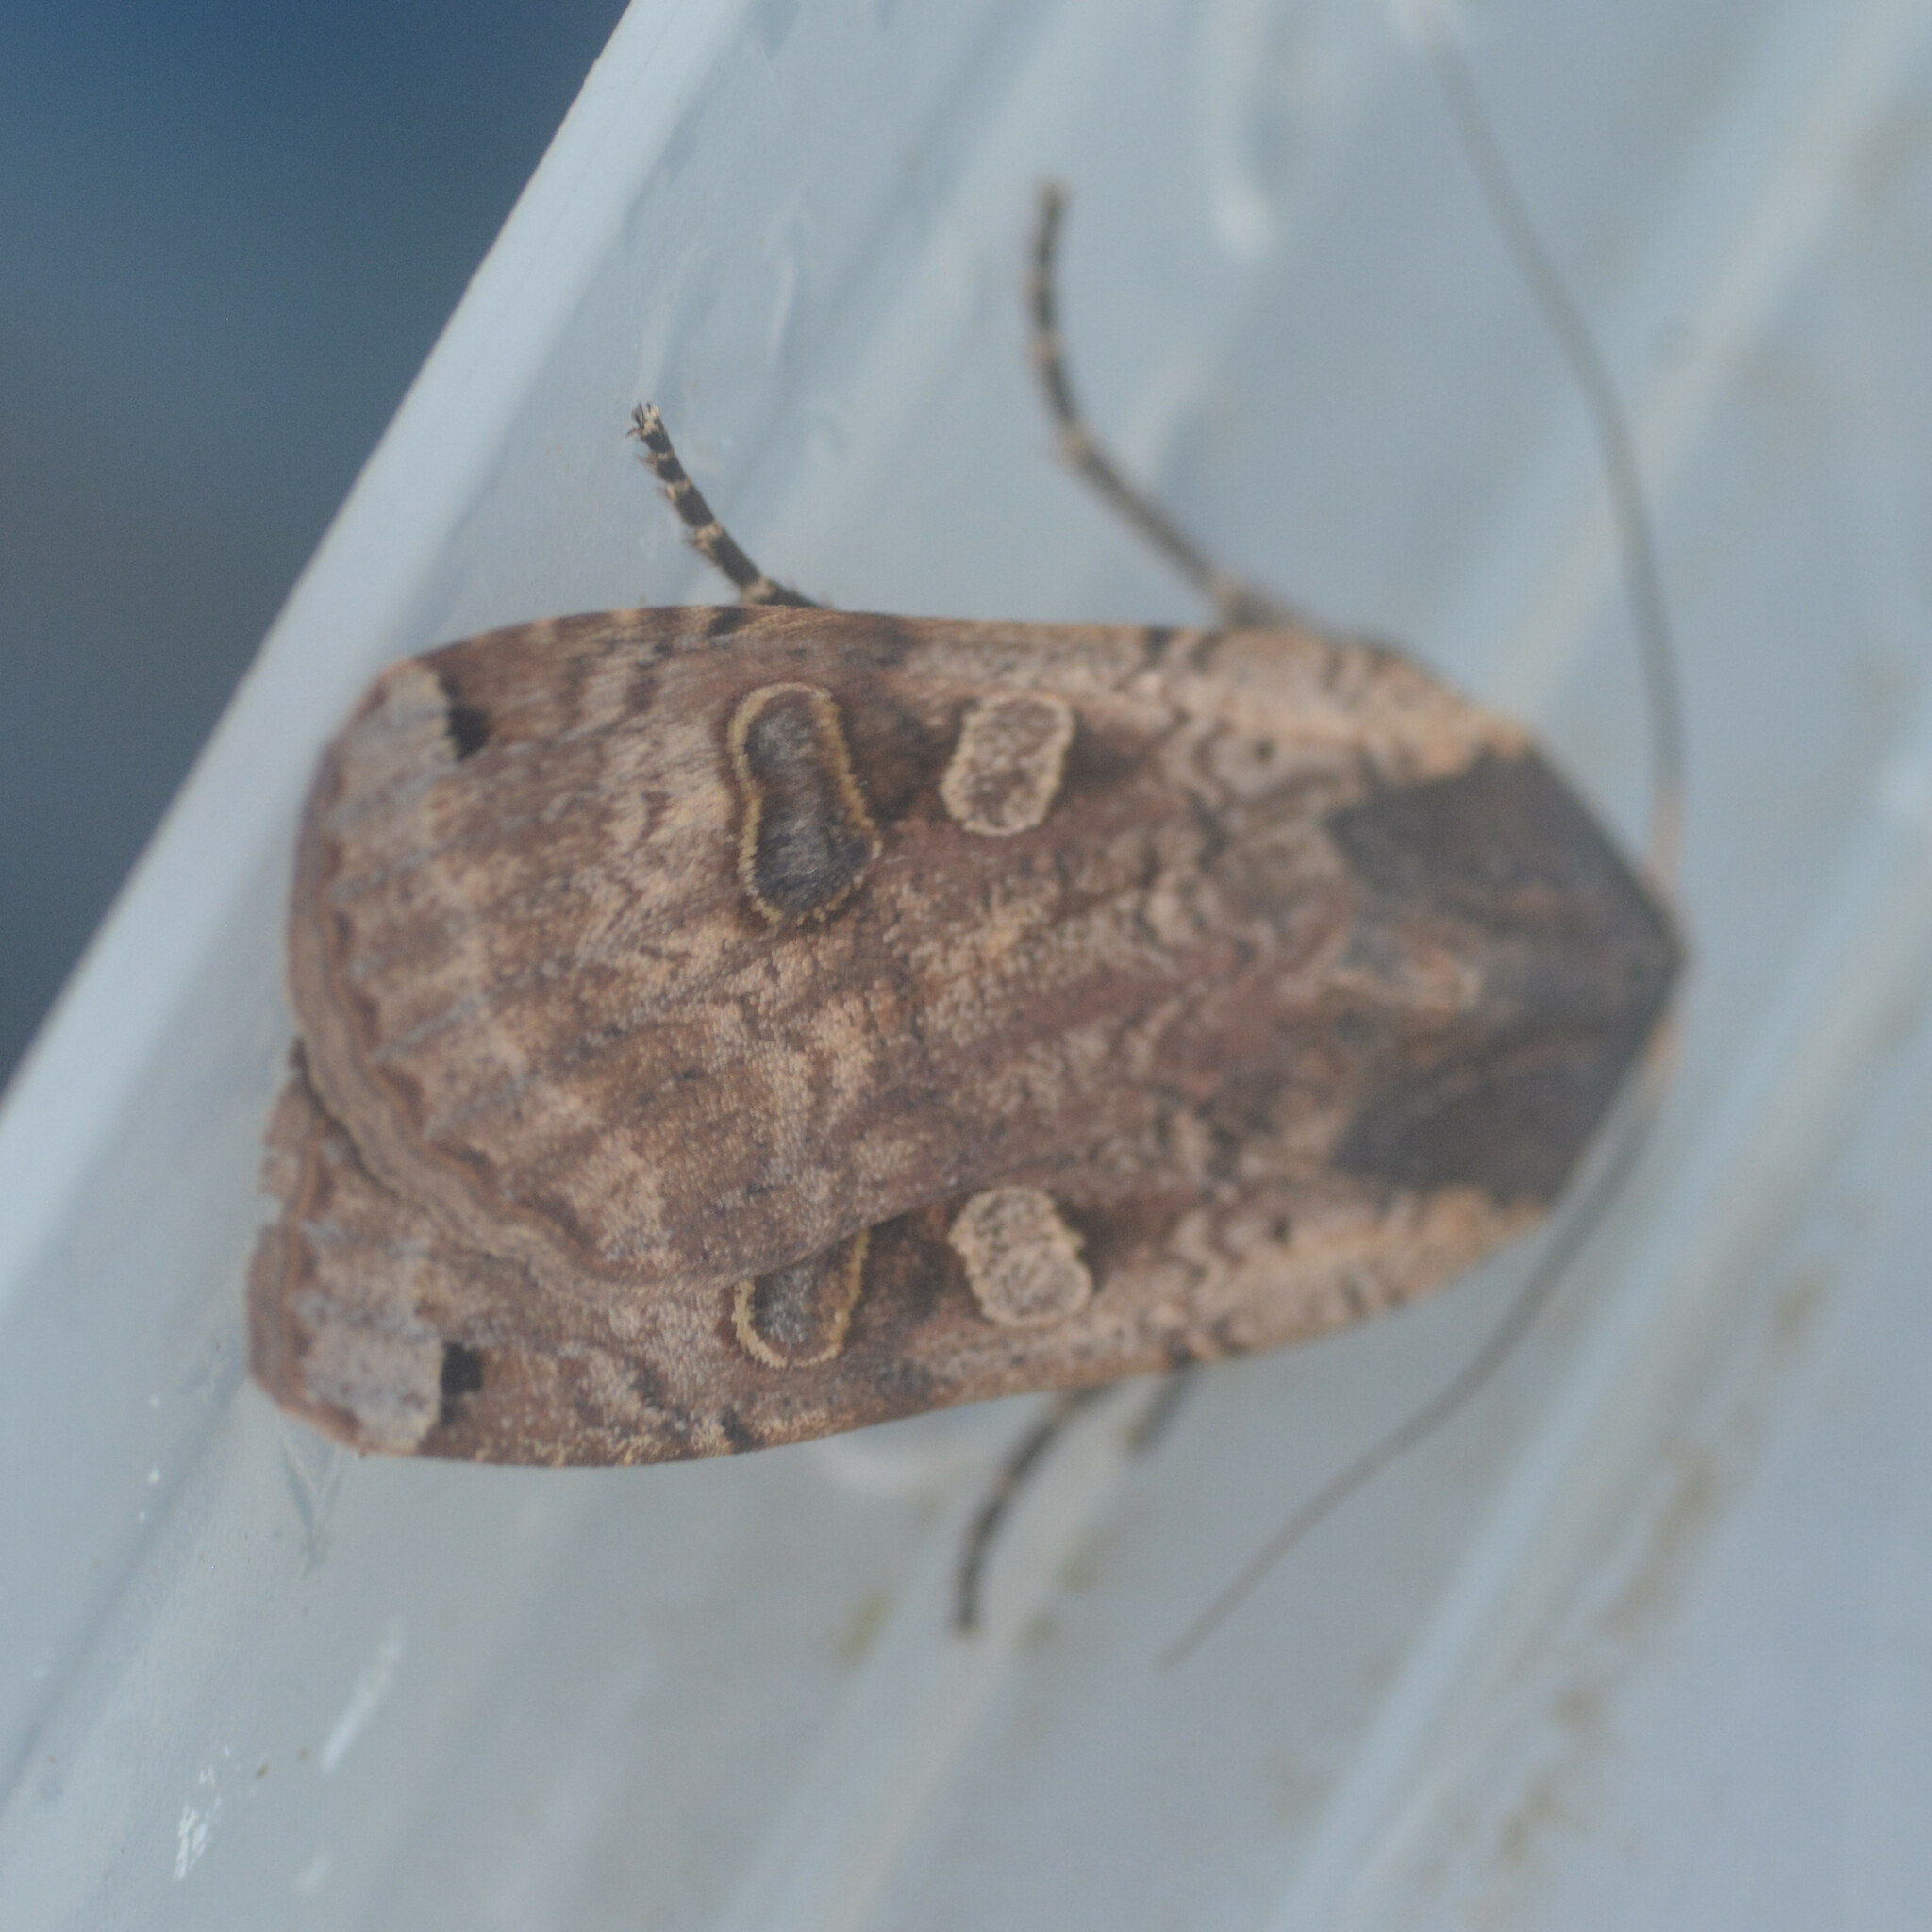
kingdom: Animalia
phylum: Arthropoda
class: Insecta
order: Lepidoptera
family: Noctuidae
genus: Noctua
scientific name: Noctua pronuba
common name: Large yellow underwing
